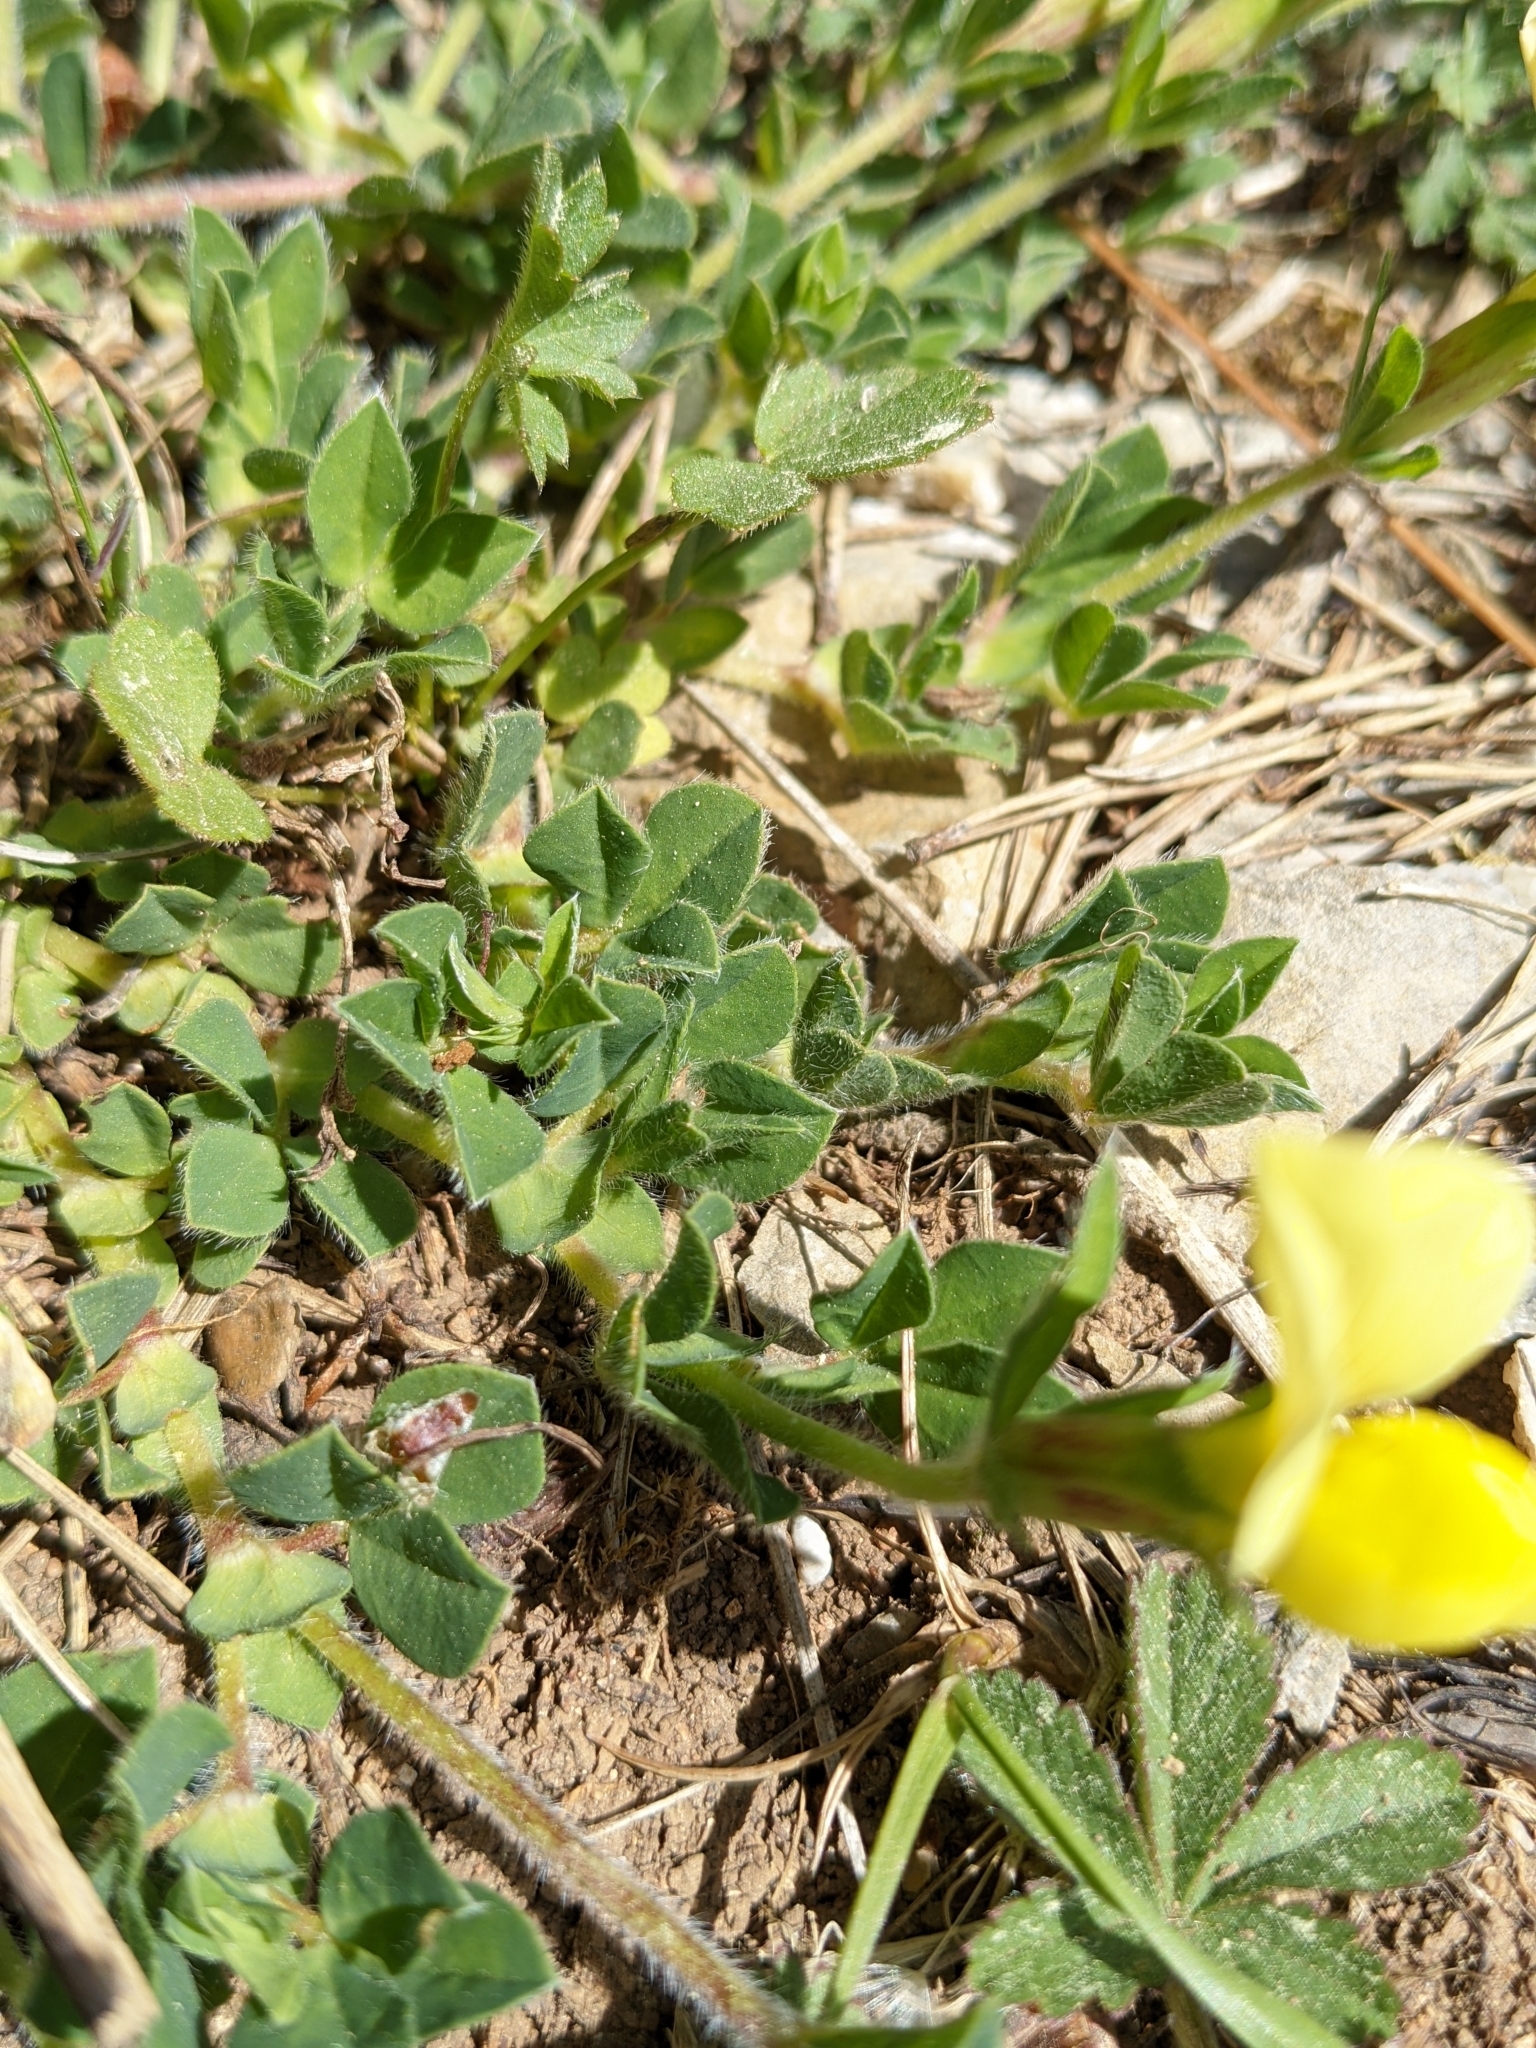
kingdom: Plantae
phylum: Tracheophyta
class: Magnoliopsida
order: Fabales
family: Fabaceae
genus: Lotus
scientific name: Lotus maritimus
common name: Dragon's-teeth
